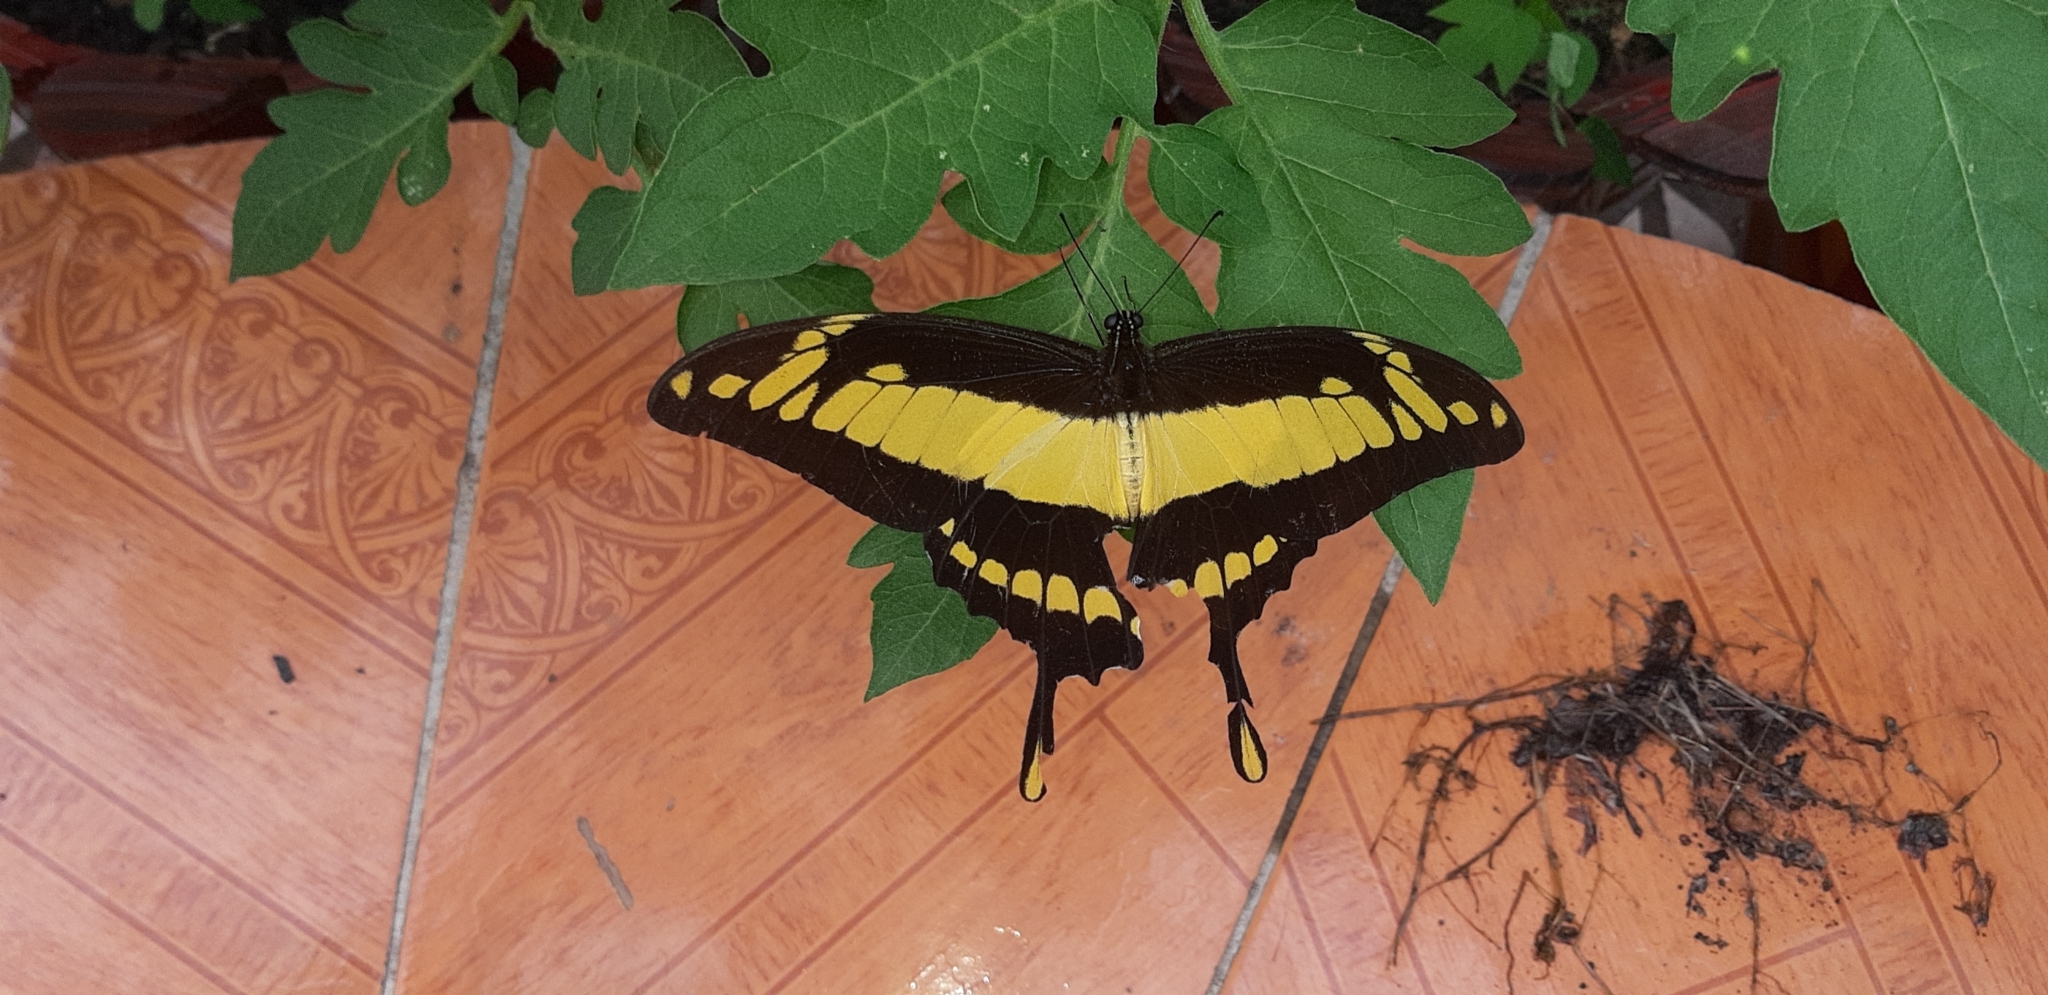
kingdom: Animalia
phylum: Arthropoda
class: Insecta
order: Lepidoptera
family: Papilionidae
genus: Papilio
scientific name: Papilio thoas
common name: King swallowtail
